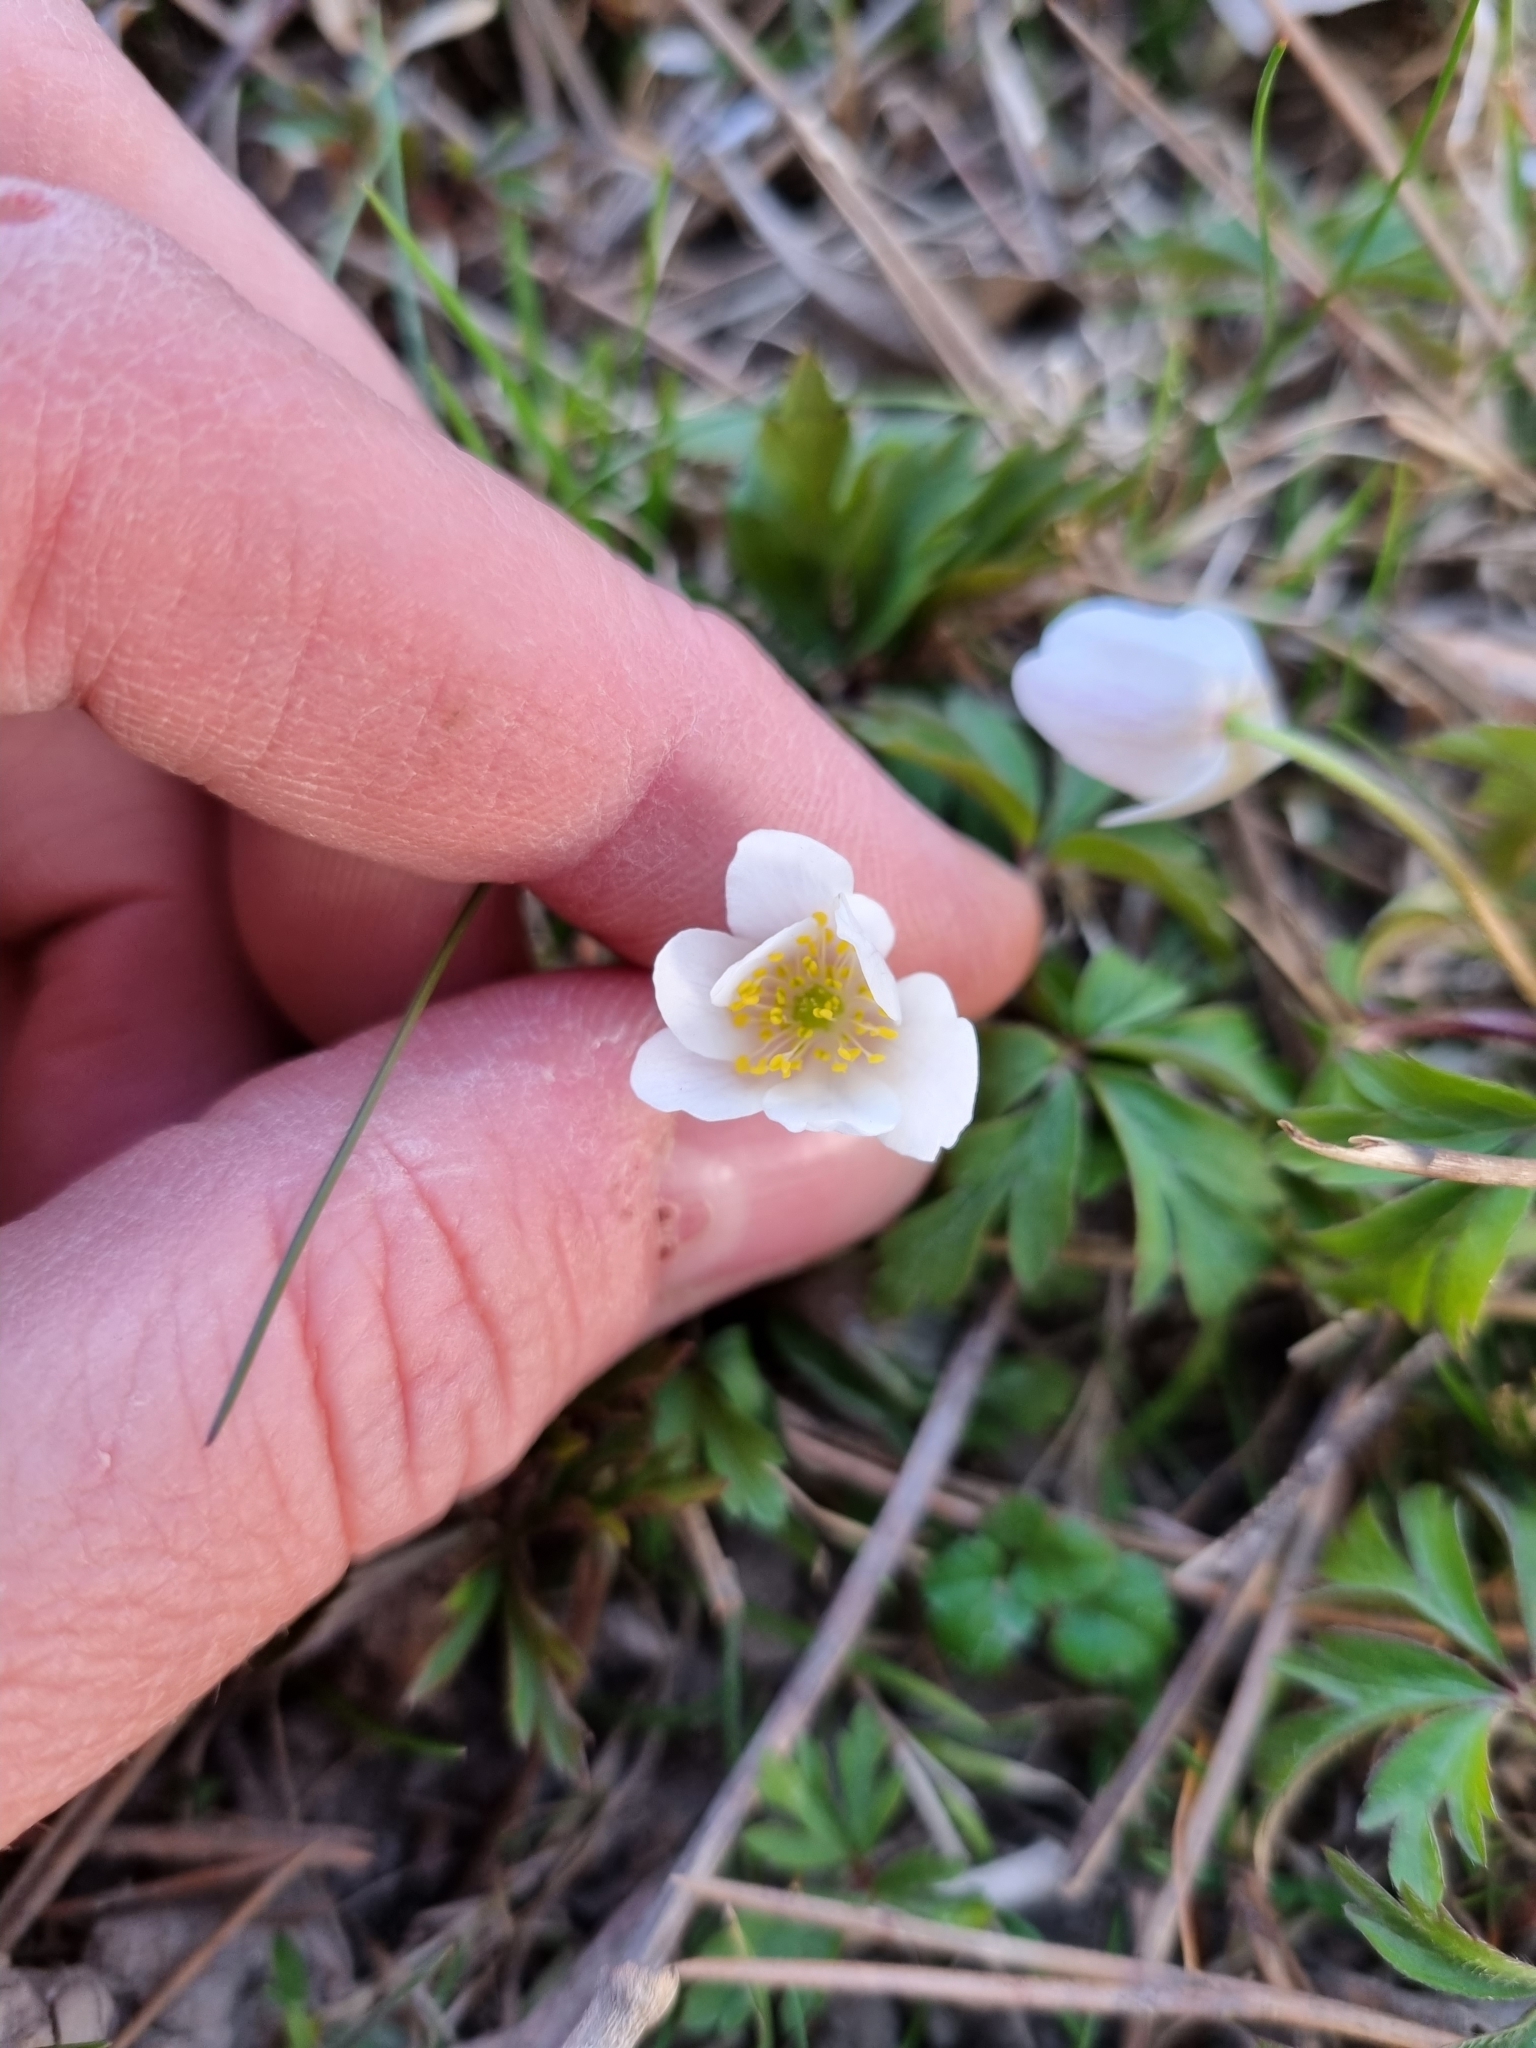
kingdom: Plantae
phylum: Tracheophyta
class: Magnoliopsida
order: Ranunculales
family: Ranunculaceae
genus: Anemone
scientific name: Anemone nemorosa
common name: Wood anemone
